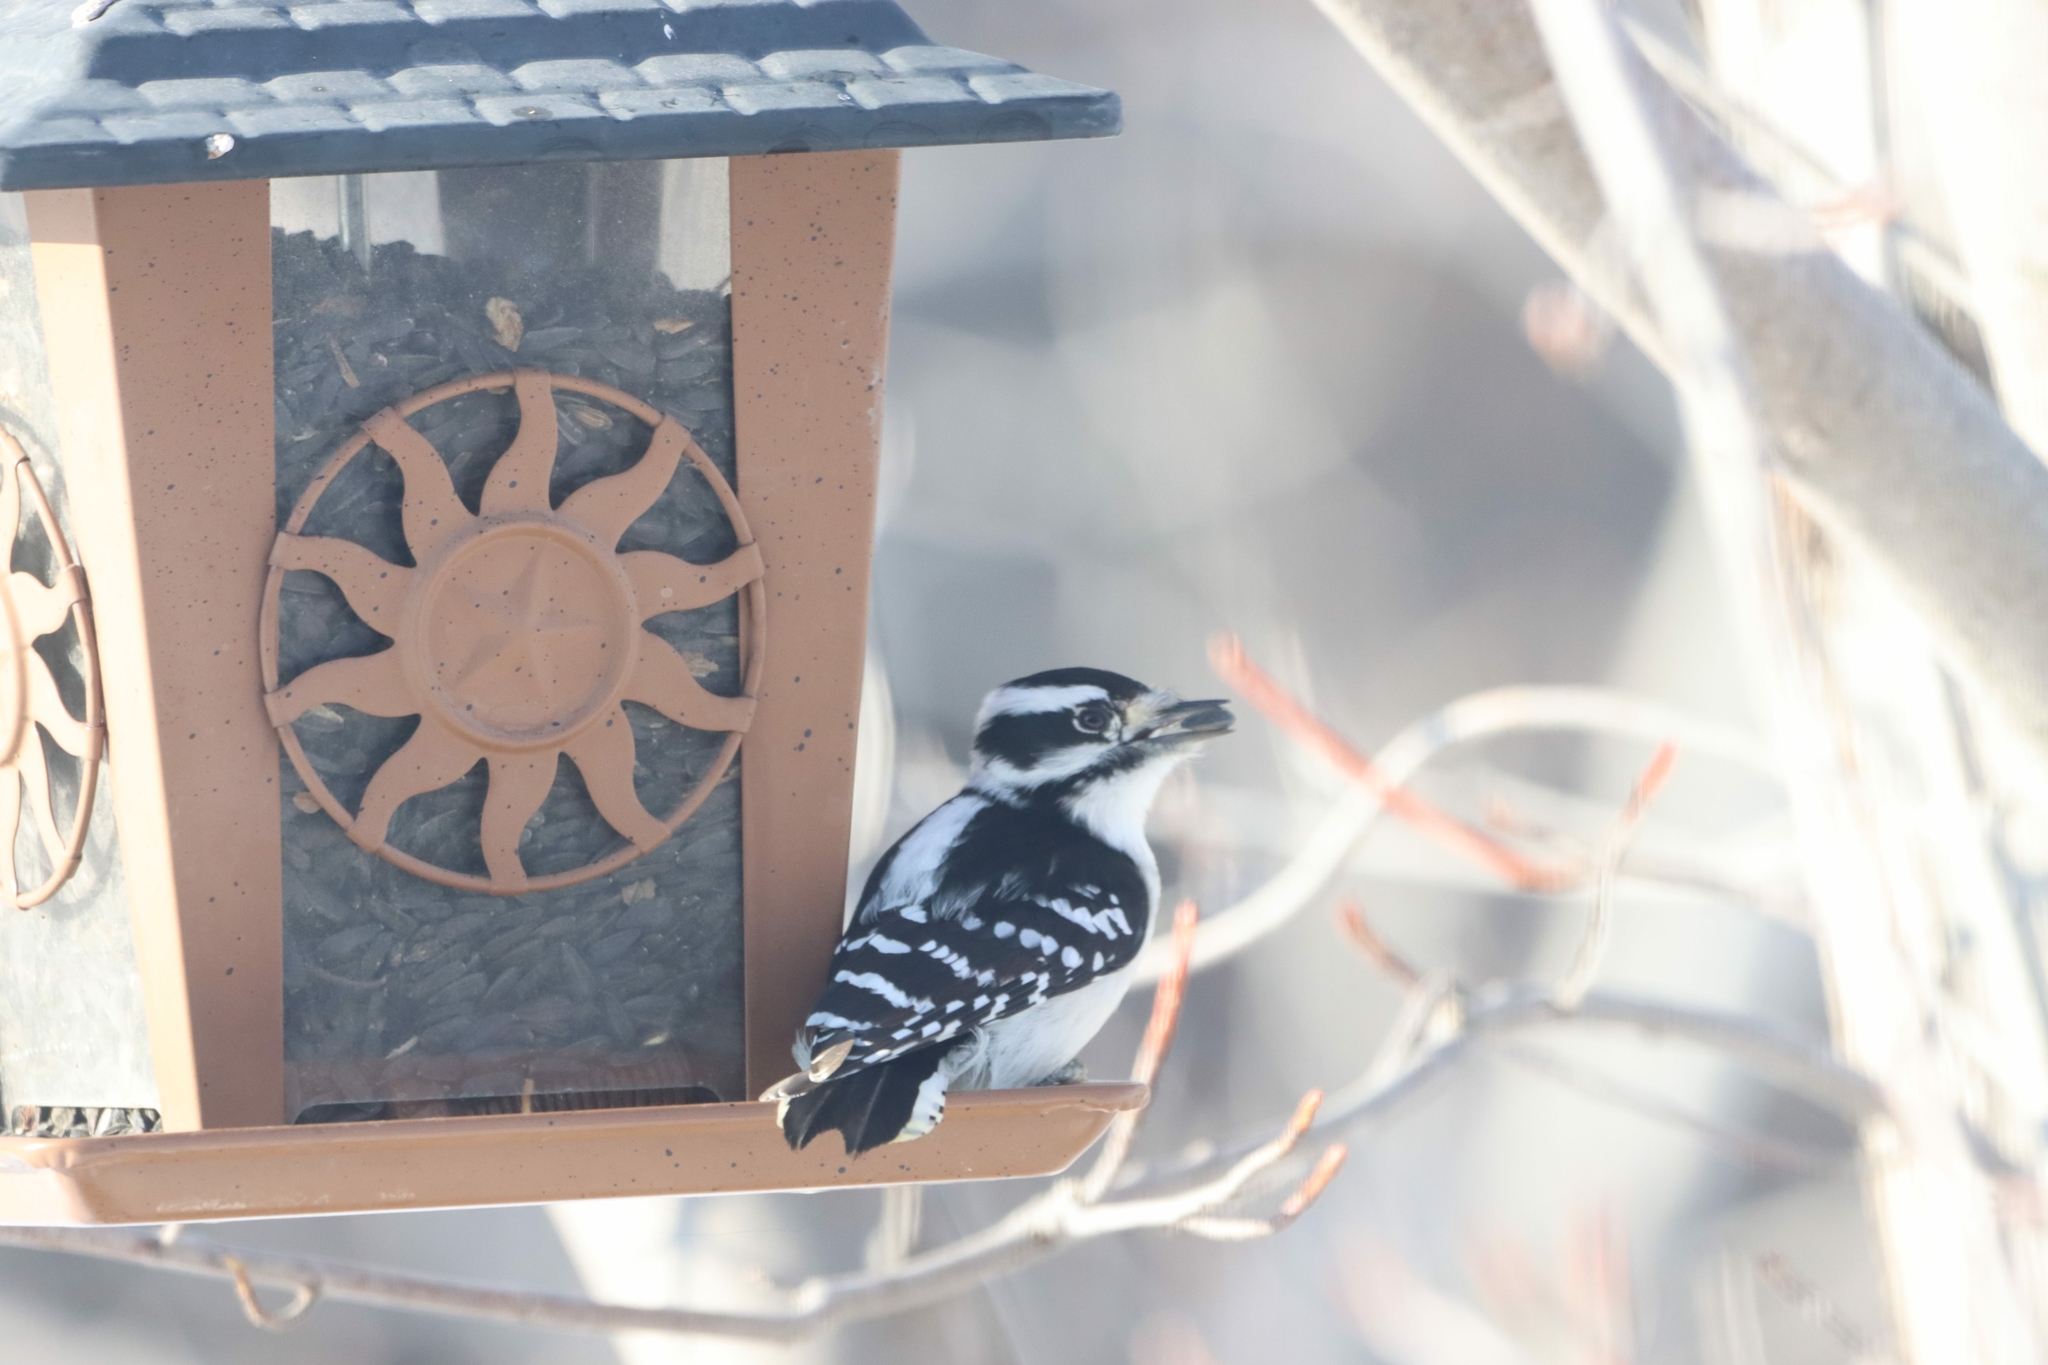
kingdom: Animalia
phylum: Chordata
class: Aves
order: Piciformes
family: Picidae
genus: Dryobates
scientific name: Dryobates pubescens
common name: Downy woodpecker
